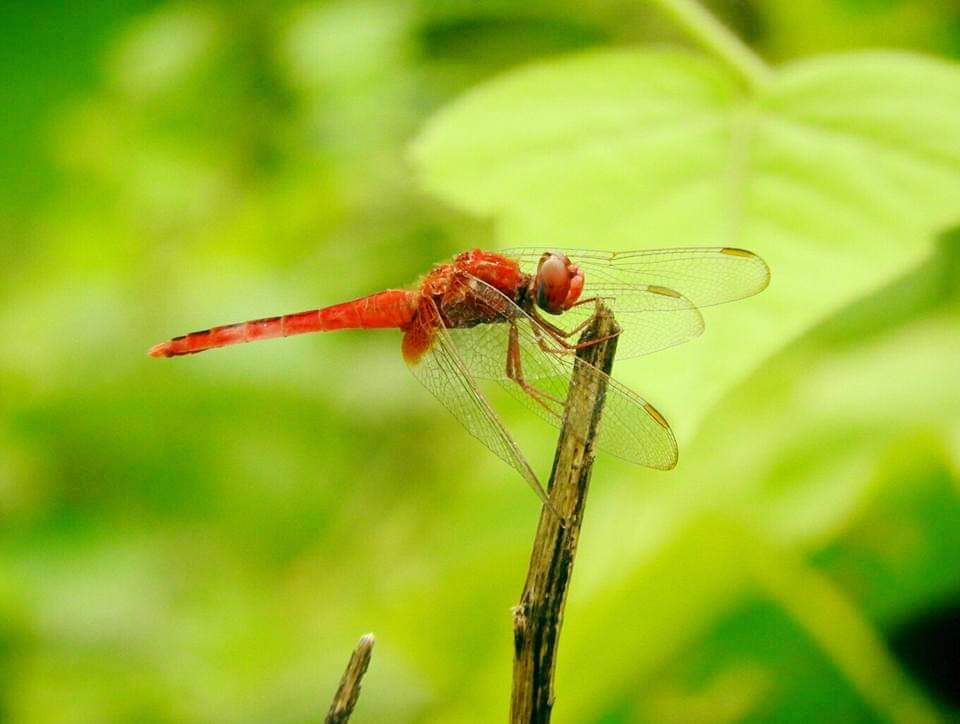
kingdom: Animalia
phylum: Arthropoda
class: Insecta
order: Odonata
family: Libellulidae
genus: Crocothemis
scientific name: Crocothemis servilia
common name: Scarlet skimmer
